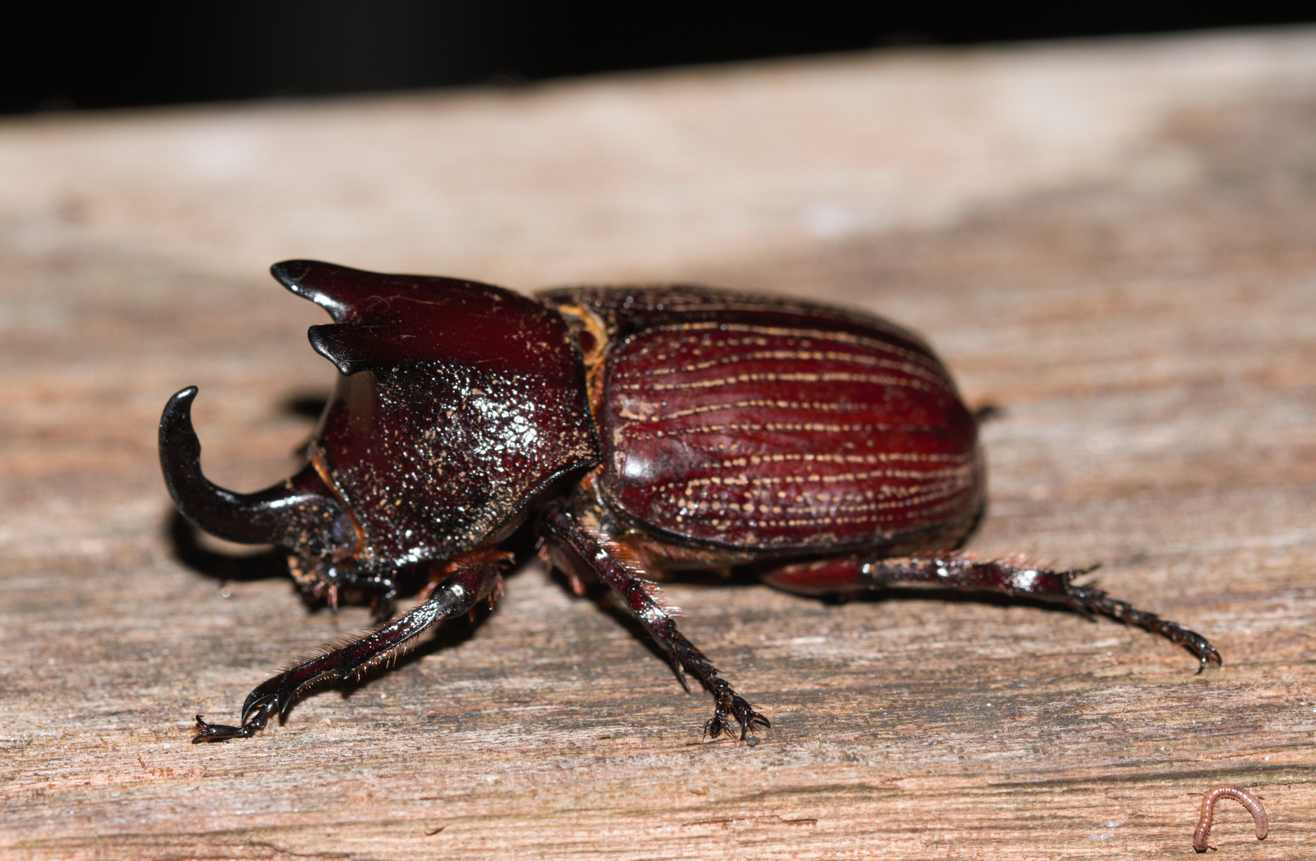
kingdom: Animalia
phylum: Arthropoda
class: Insecta
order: Coleoptera
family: Scarabaeidae
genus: Coelosis
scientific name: Coelosis biloba
